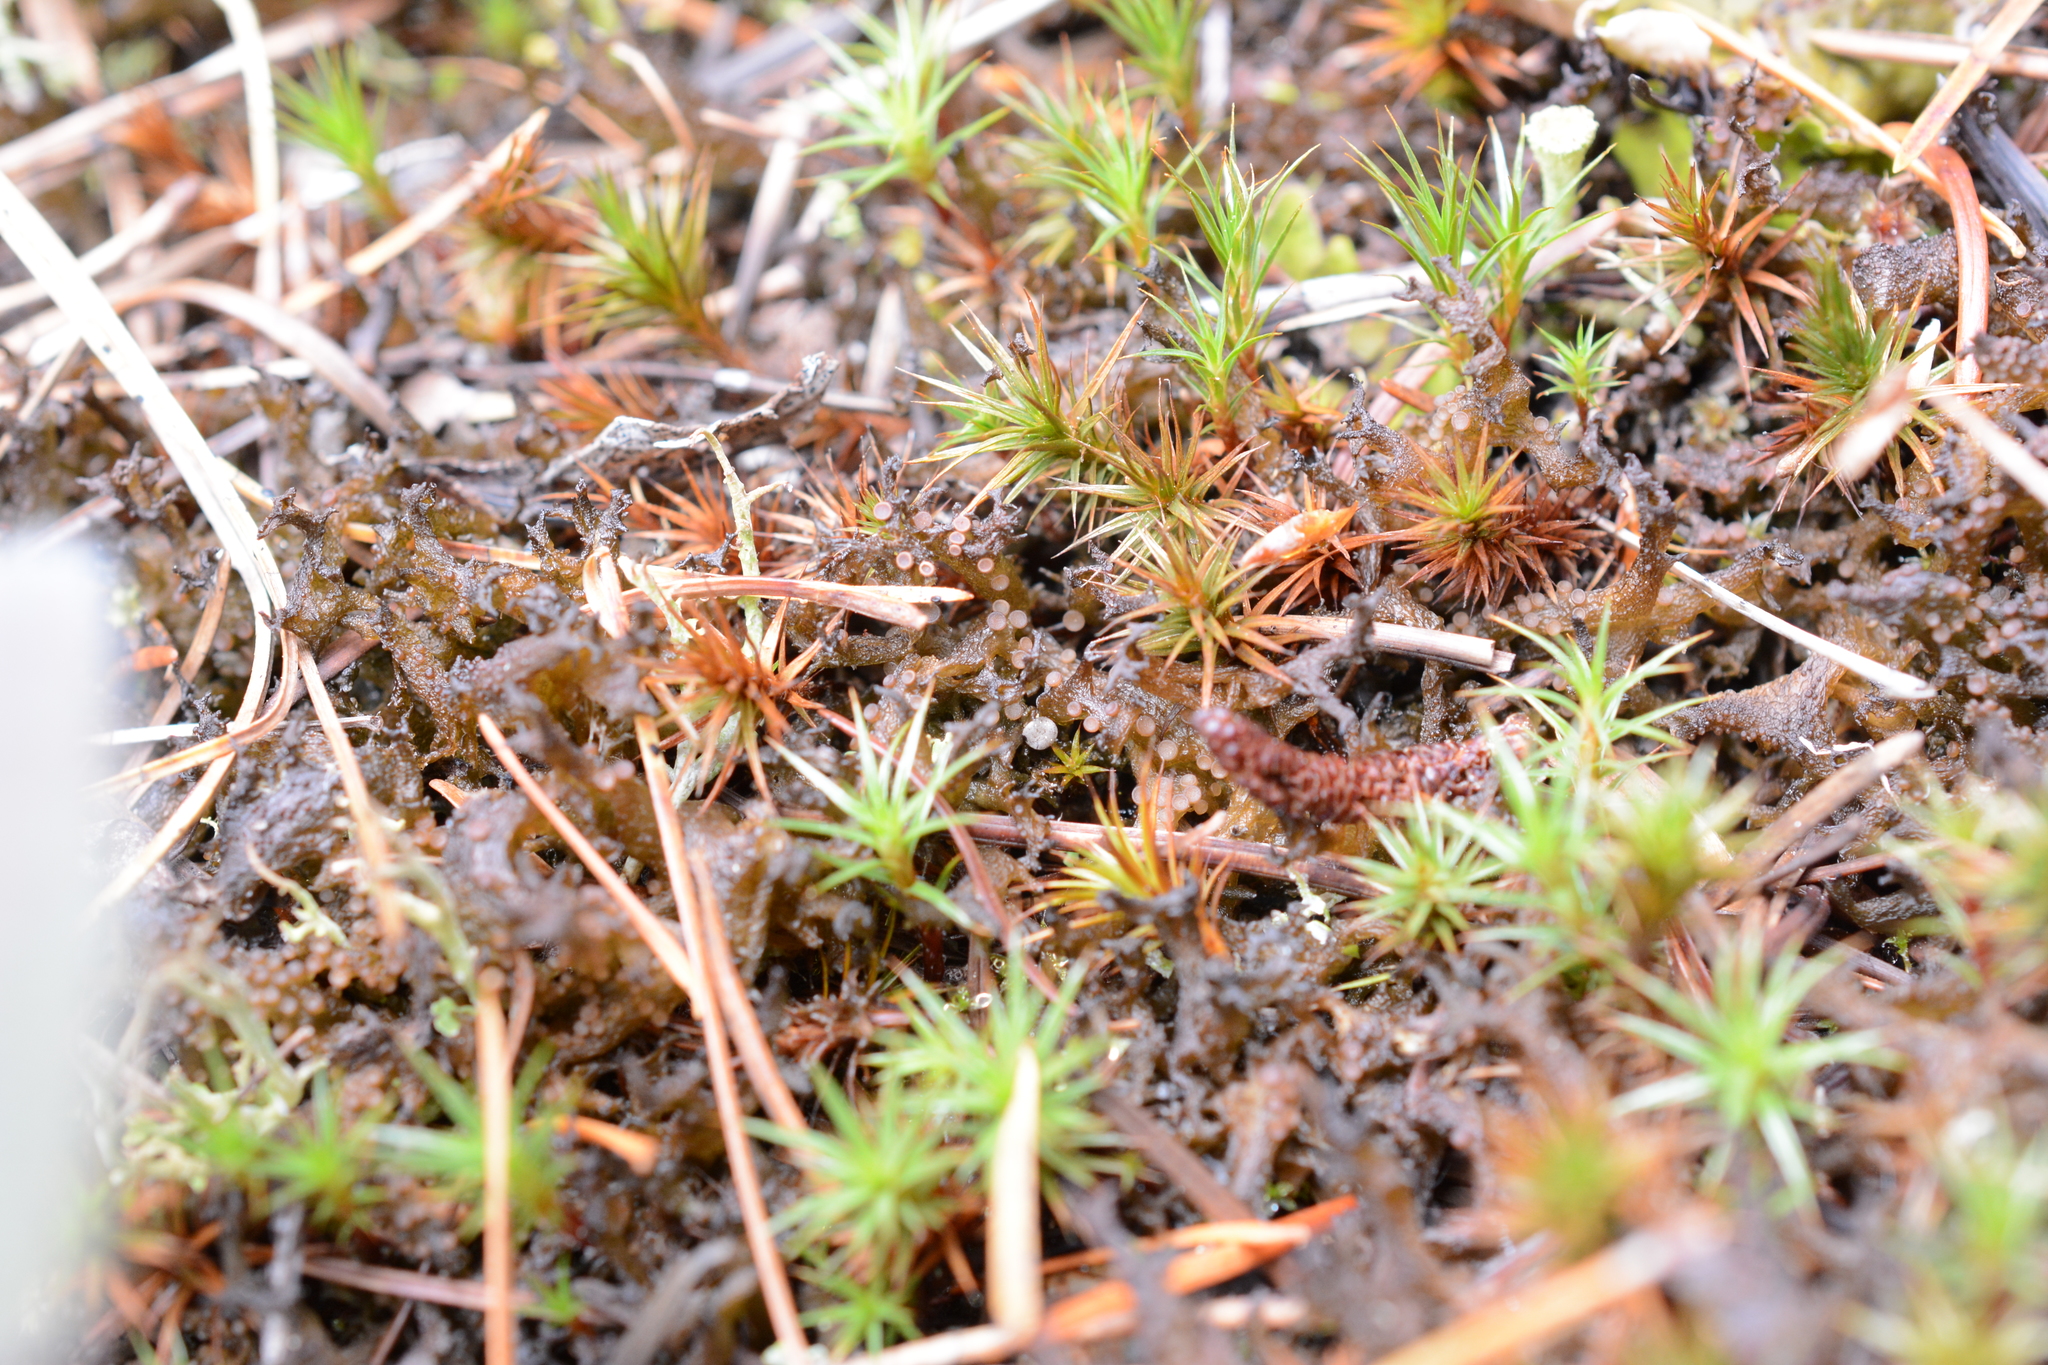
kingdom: Fungi
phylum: Ascomycota
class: Lecanoromycetes
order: Peltigerales
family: Collemataceae
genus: Scytinium
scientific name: Scytinium palmatum
